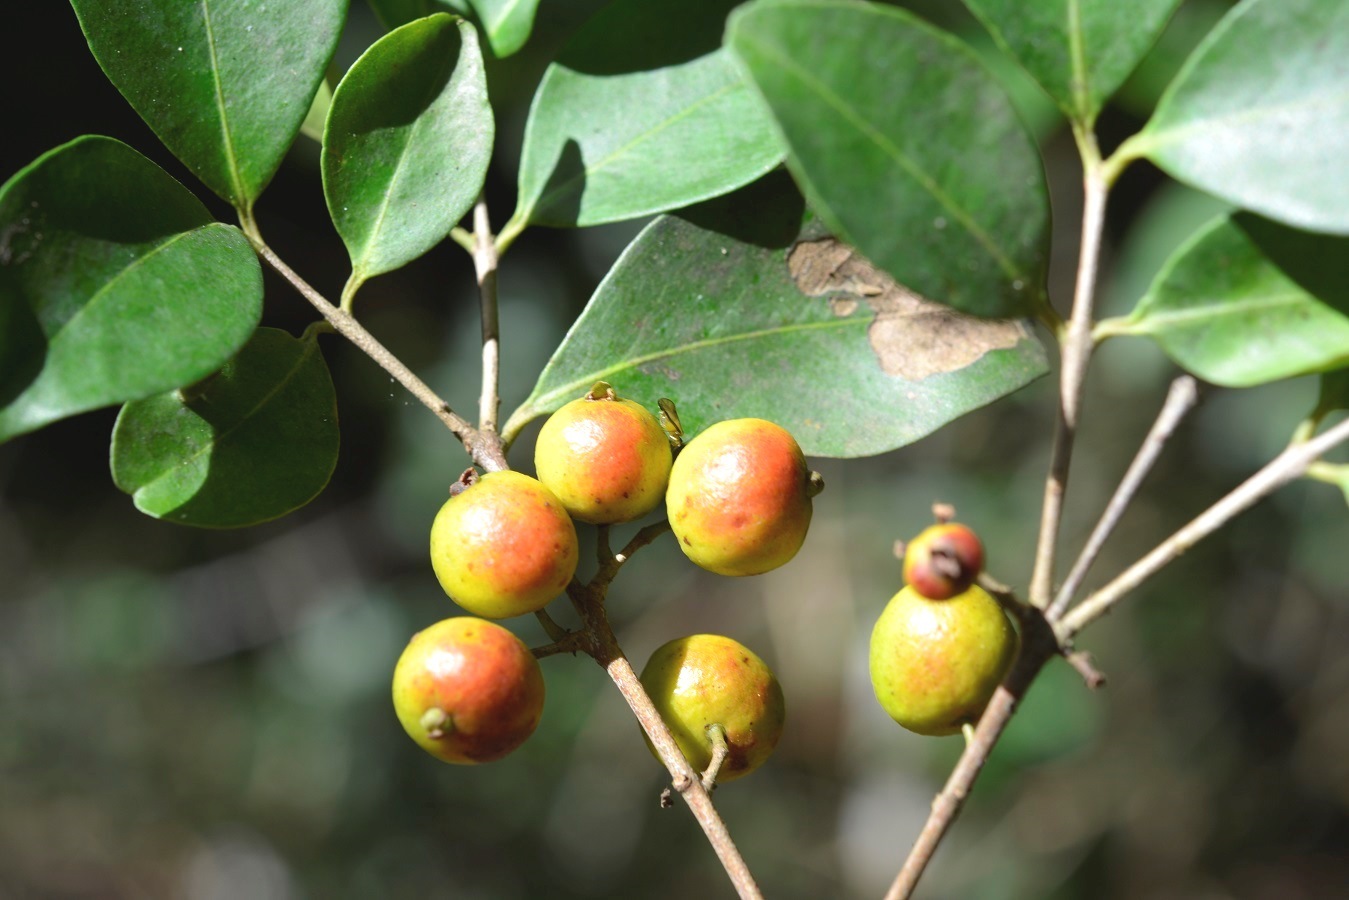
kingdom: Plantae
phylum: Tracheophyta
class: Magnoliopsida
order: Myrtales
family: Myrtaceae
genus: Eugenia
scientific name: Eugenia capuli
